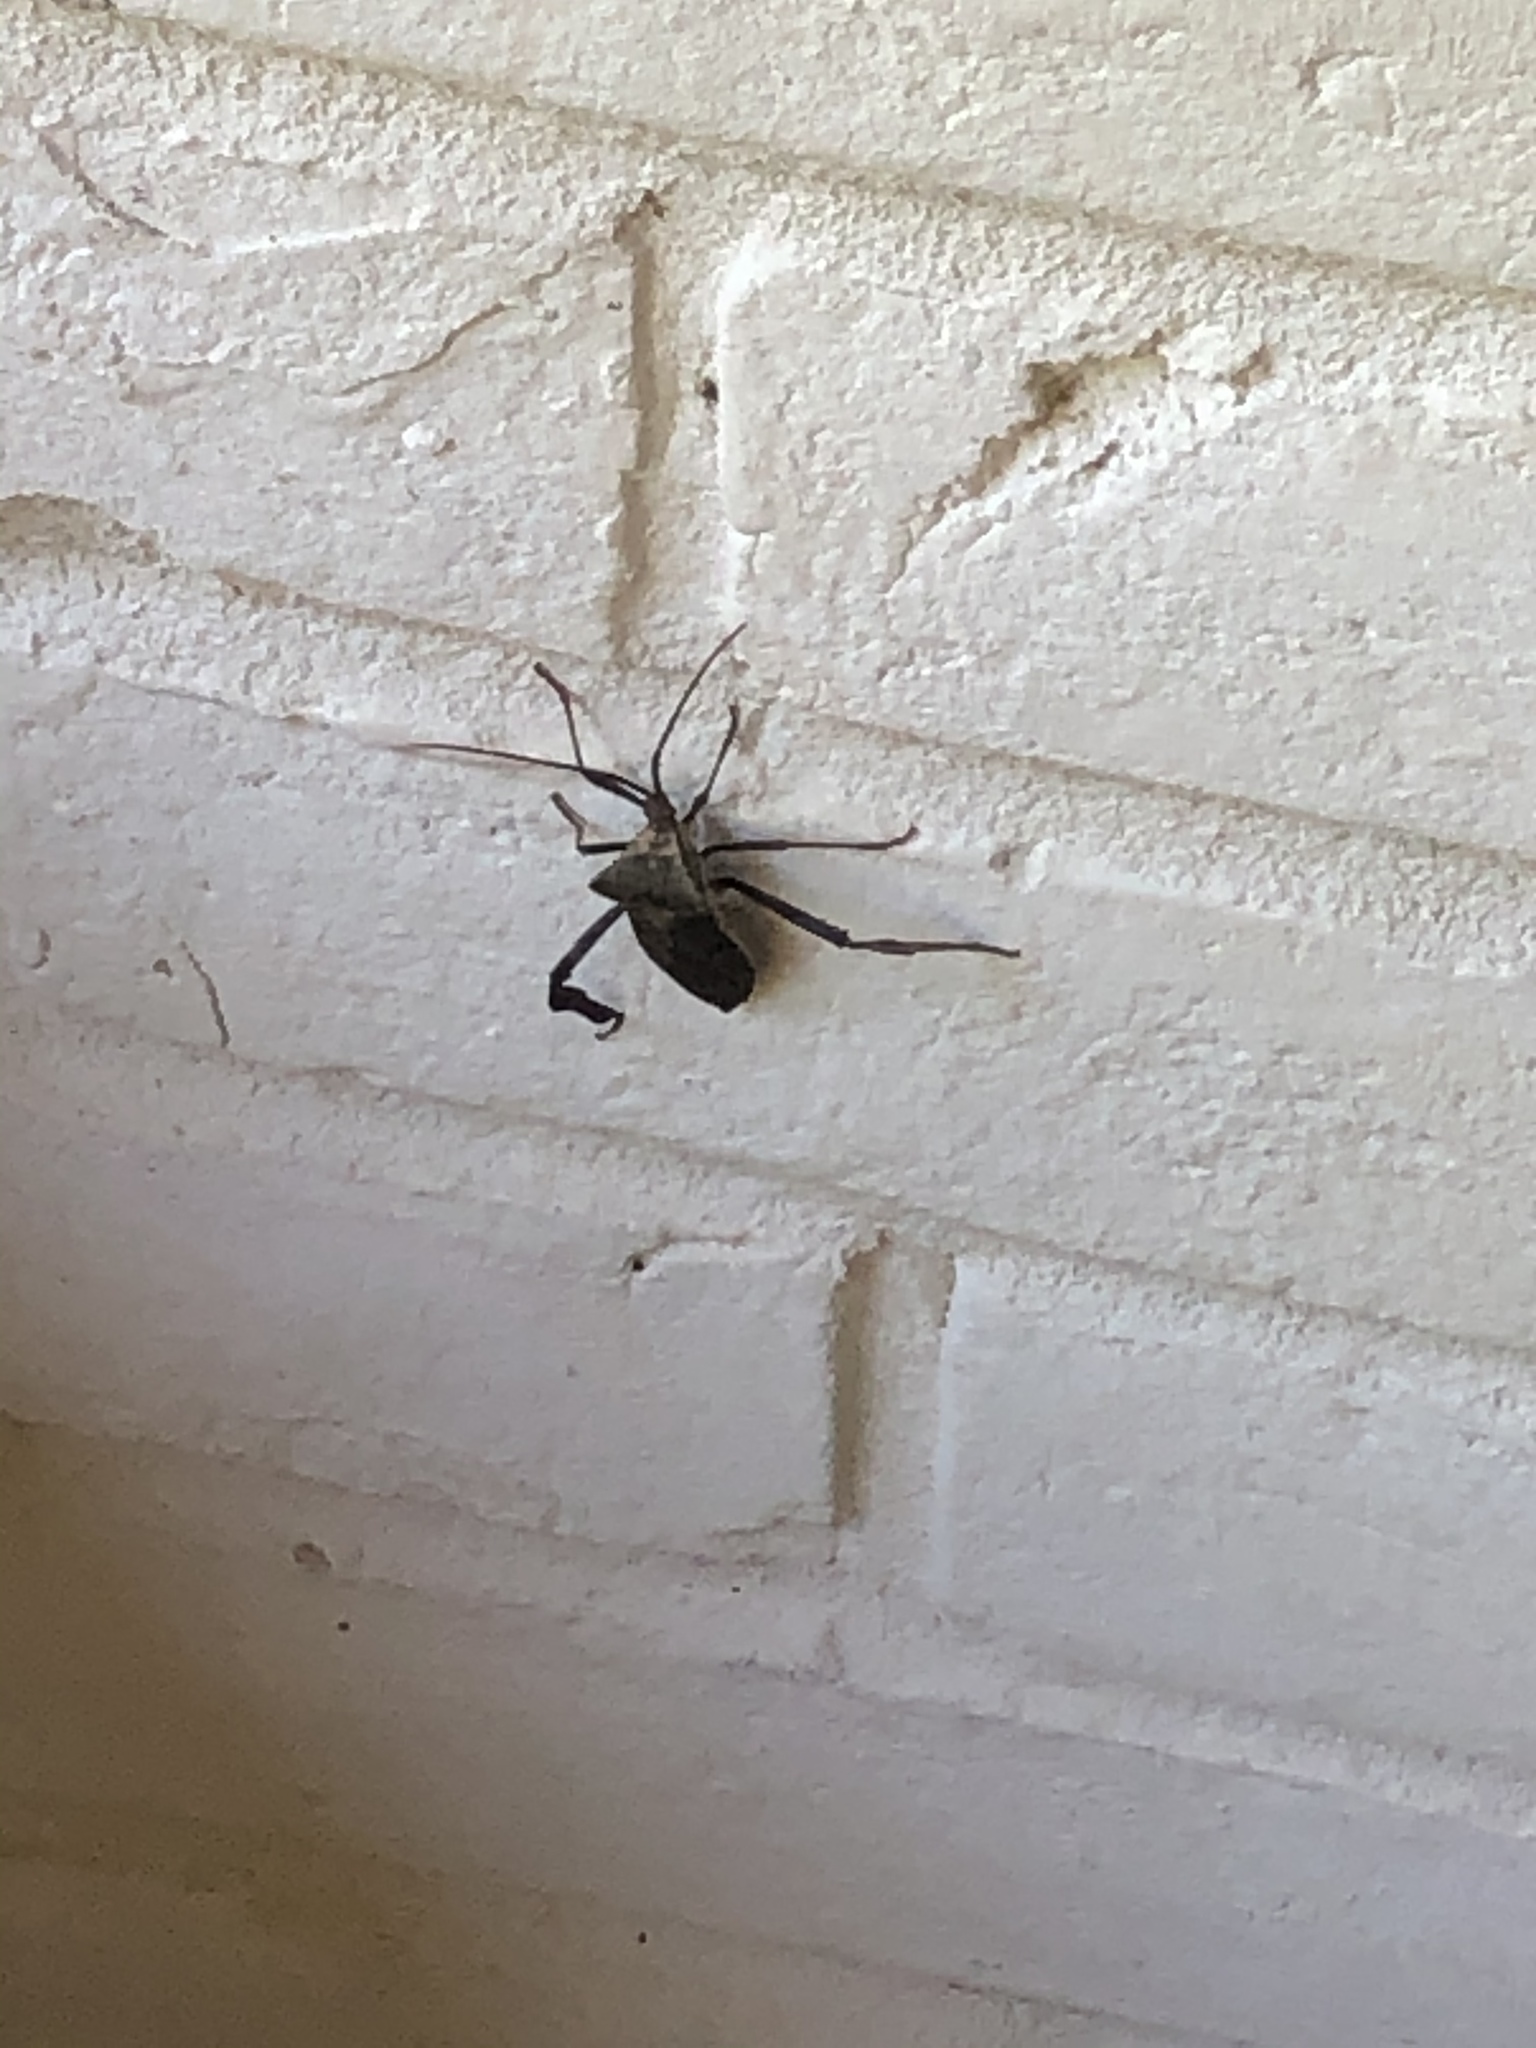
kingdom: Animalia
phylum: Arthropoda
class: Insecta
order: Hemiptera
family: Coreidae
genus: Acanthocephala
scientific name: Acanthocephala declivis
